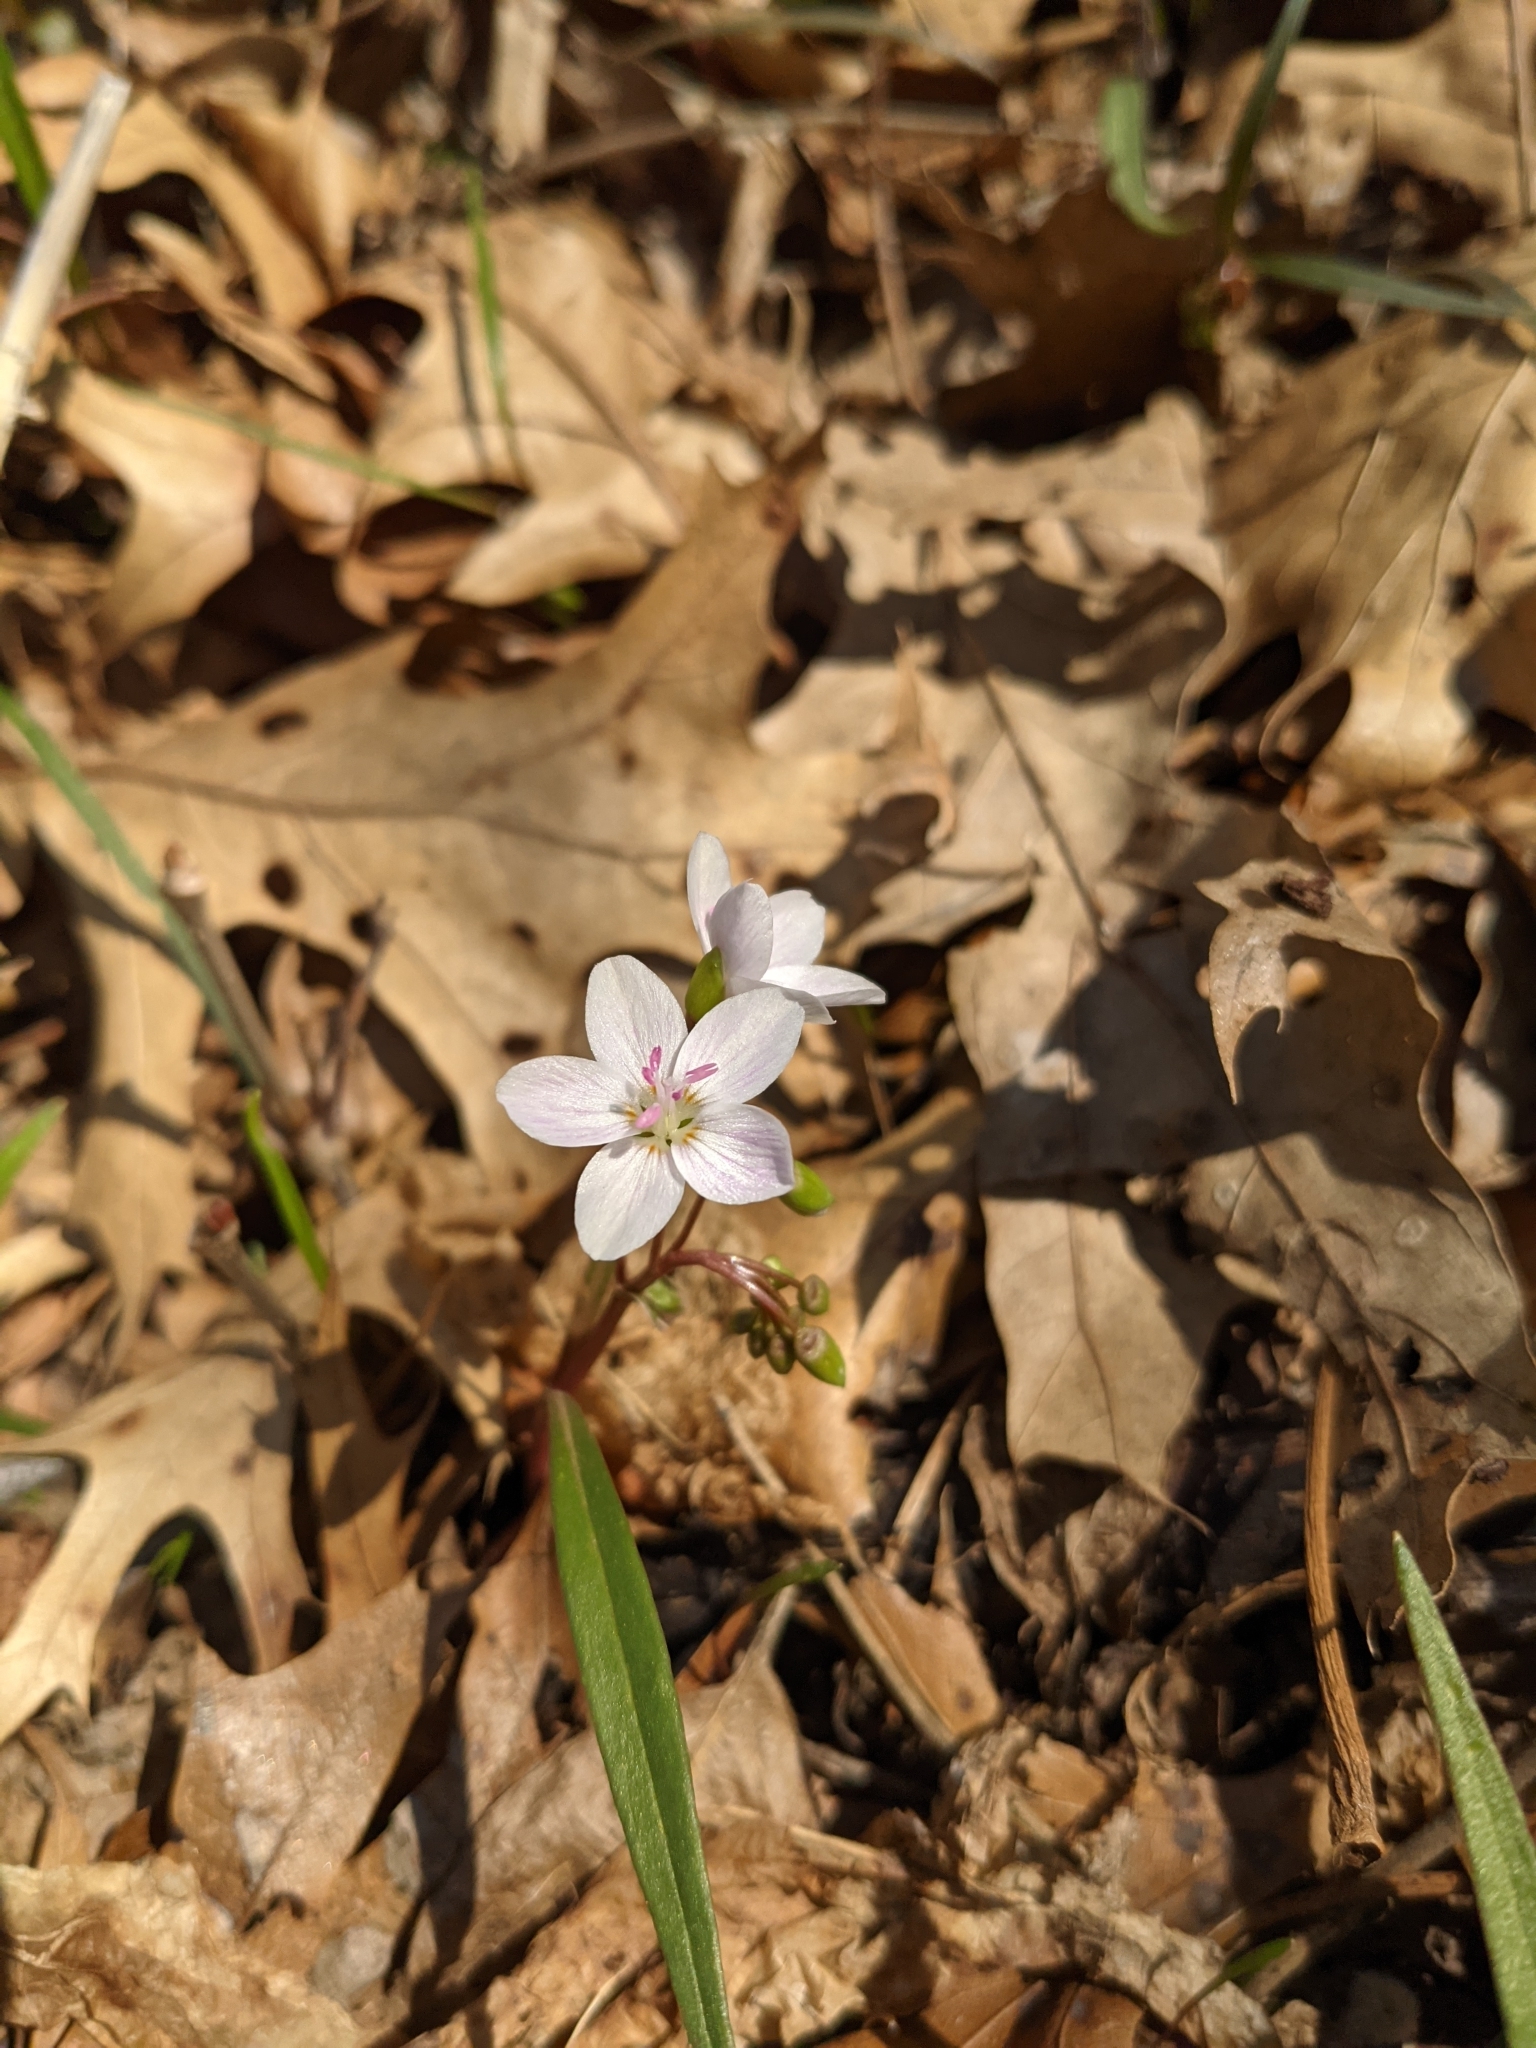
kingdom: Plantae
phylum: Tracheophyta
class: Magnoliopsida
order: Caryophyllales
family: Montiaceae
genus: Claytonia
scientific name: Claytonia virginica
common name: Virginia springbeauty
